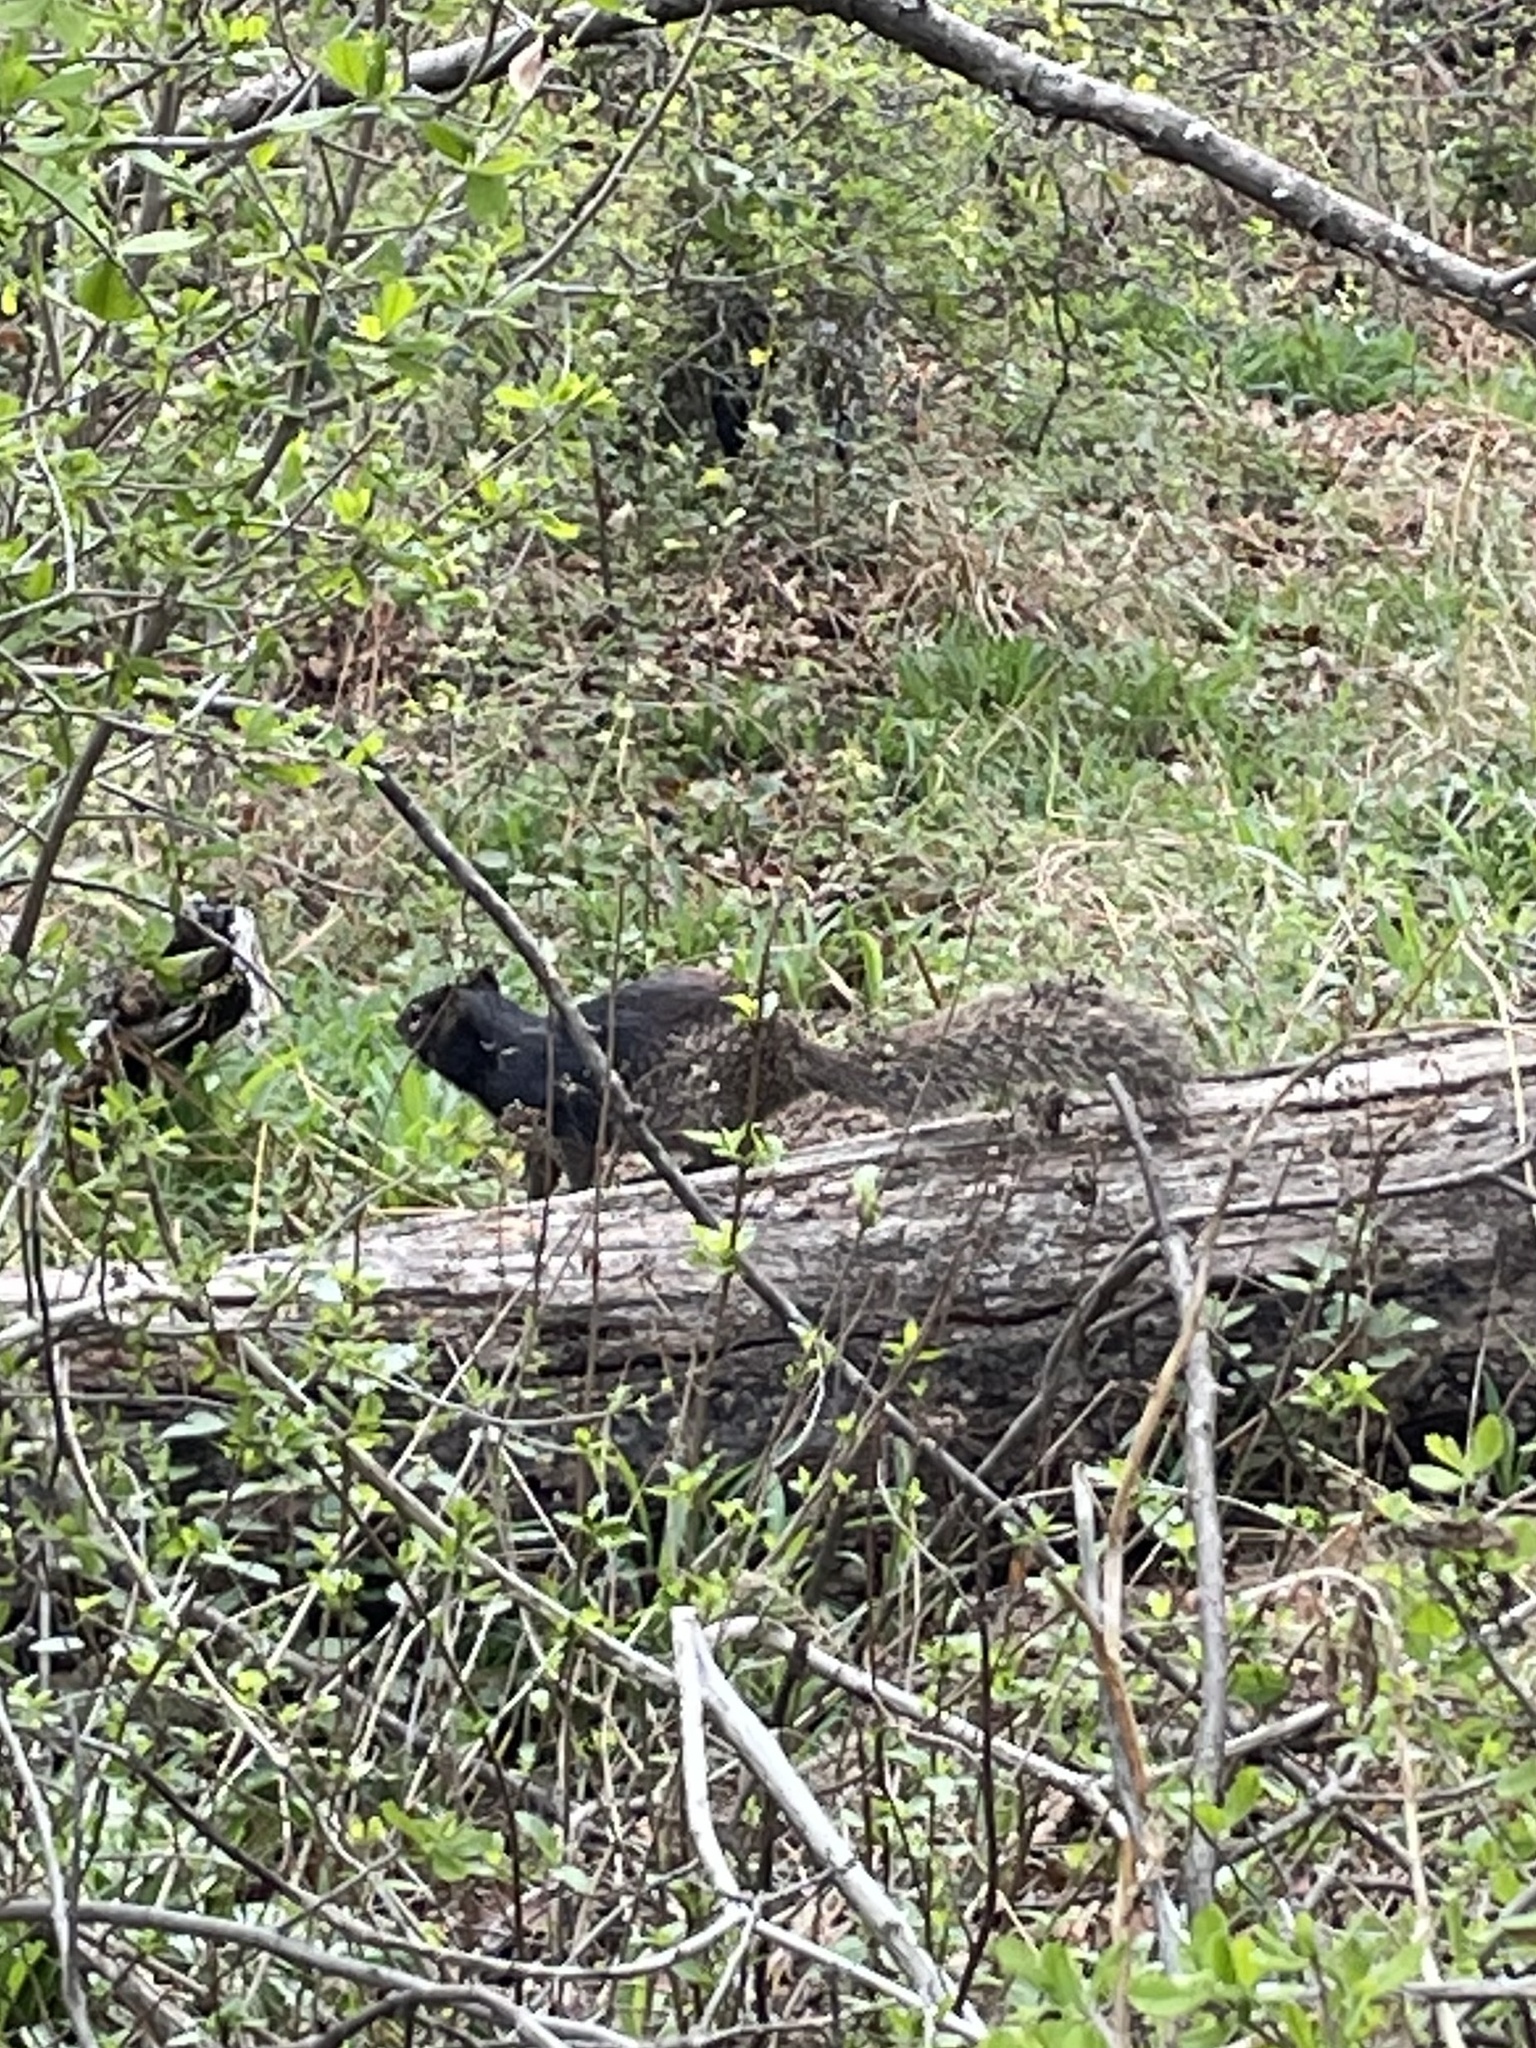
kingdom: Animalia
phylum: Chordata
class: Mammalia
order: Rodentia
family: Sciuridae
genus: Otospermophilus
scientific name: Otospermophilus variegatus
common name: Rock squirrel
